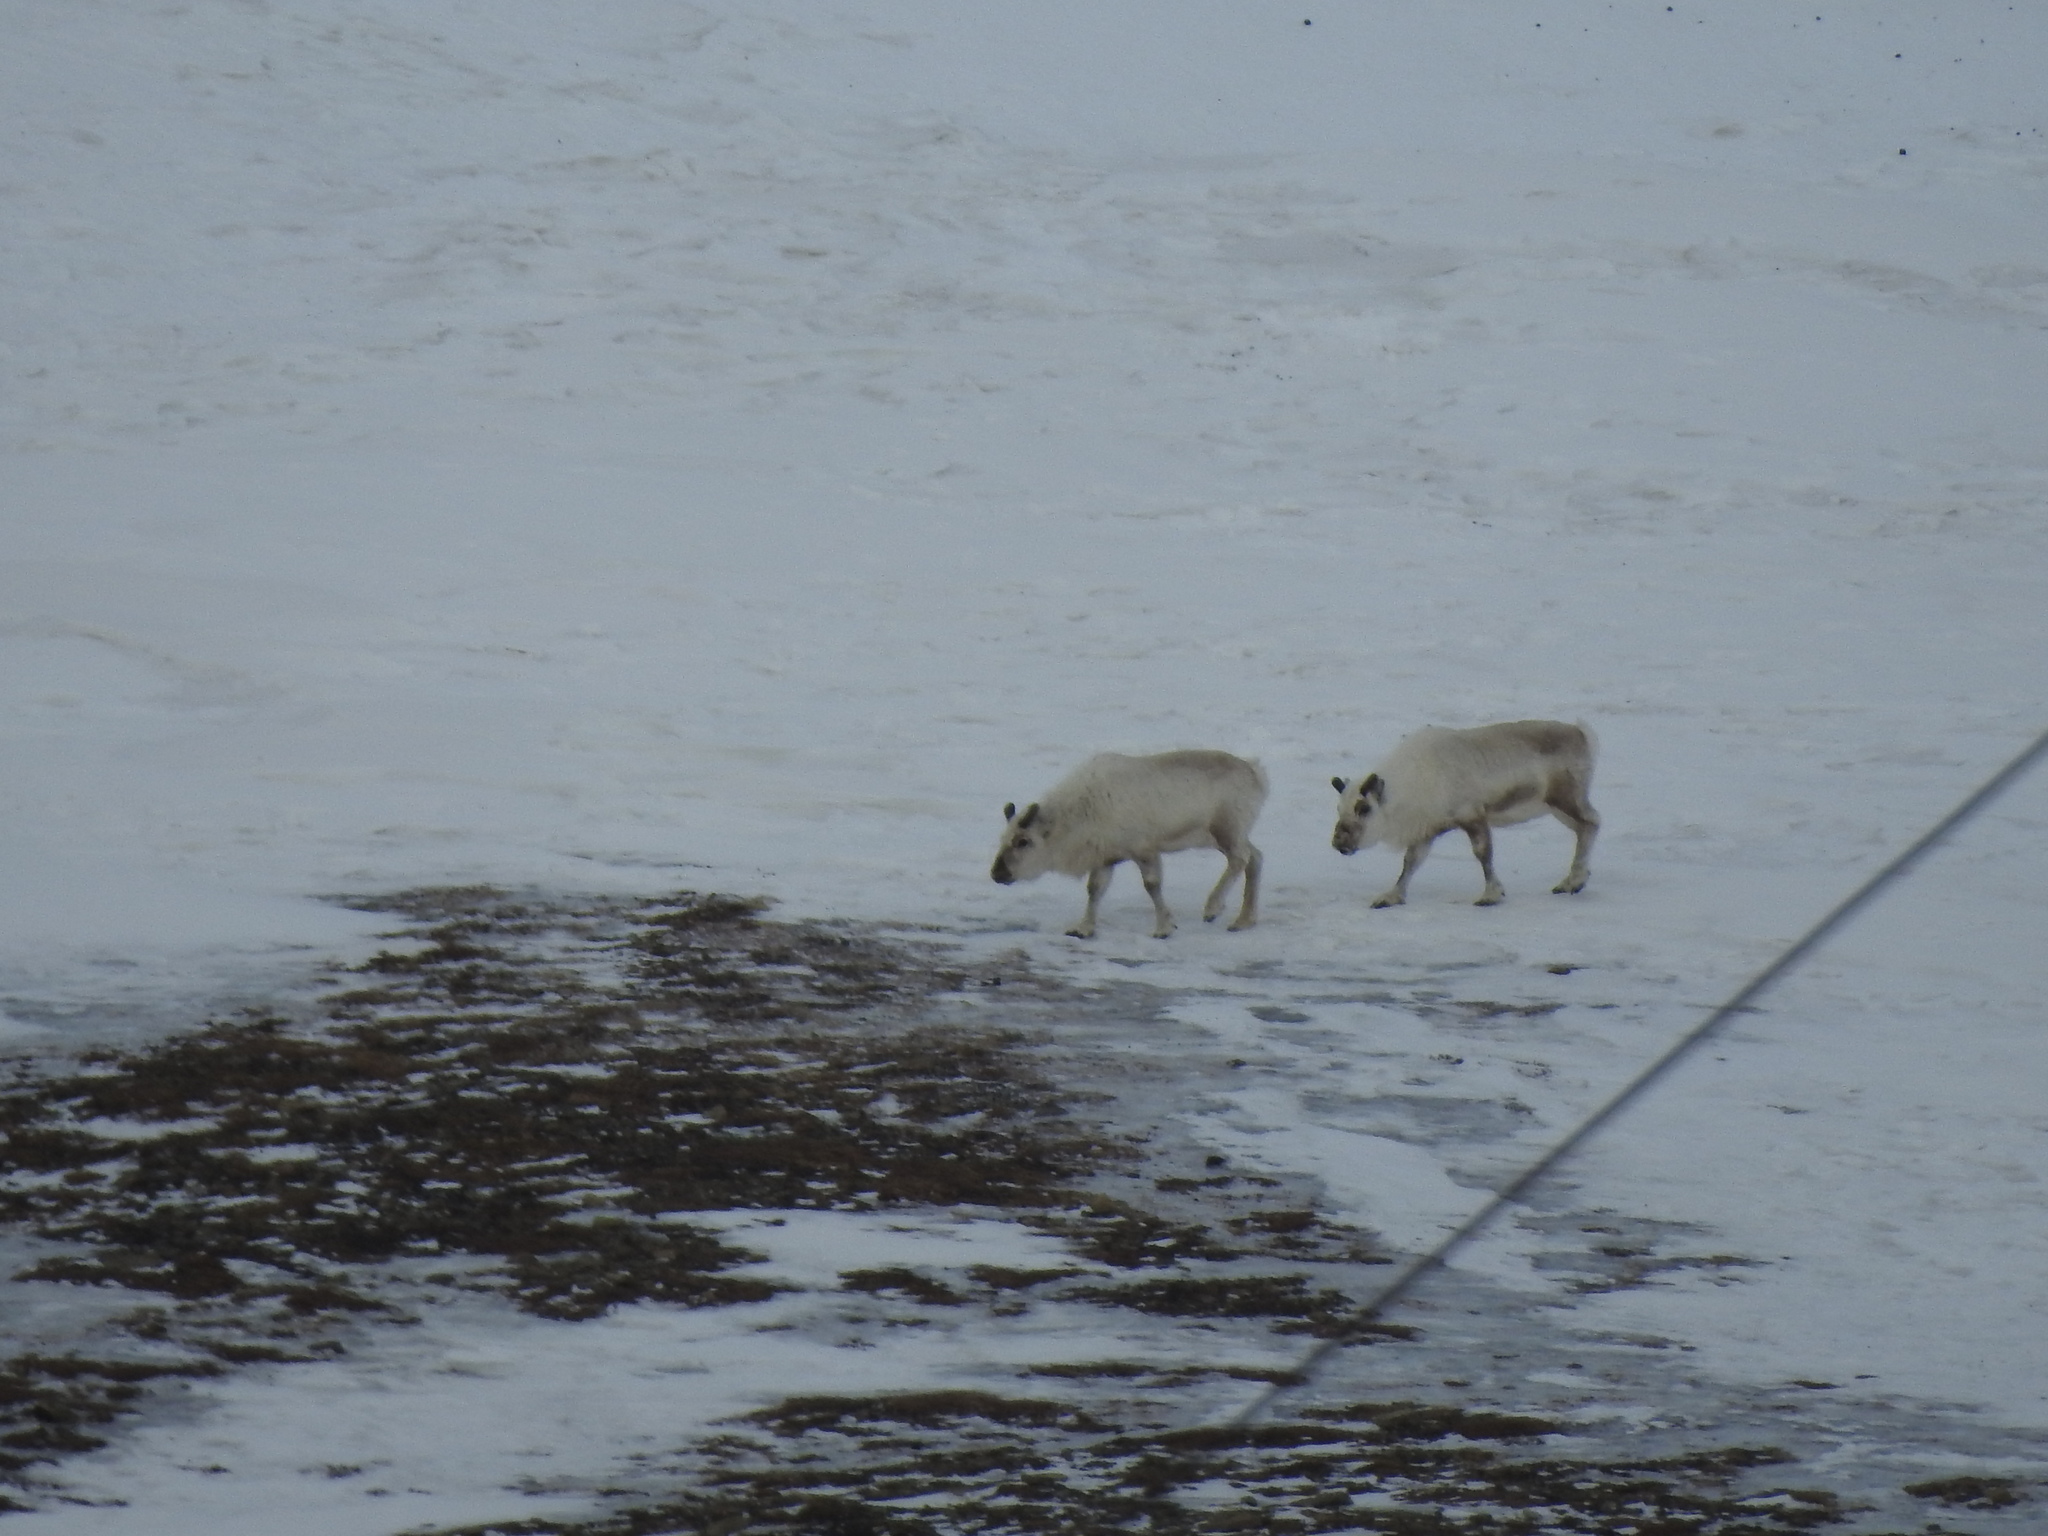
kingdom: Animalia
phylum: Chordata
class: Mammalia
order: Artiodactyla
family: Cervidae
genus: Rangifer
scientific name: Rangifer tarandus
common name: Reindeer
